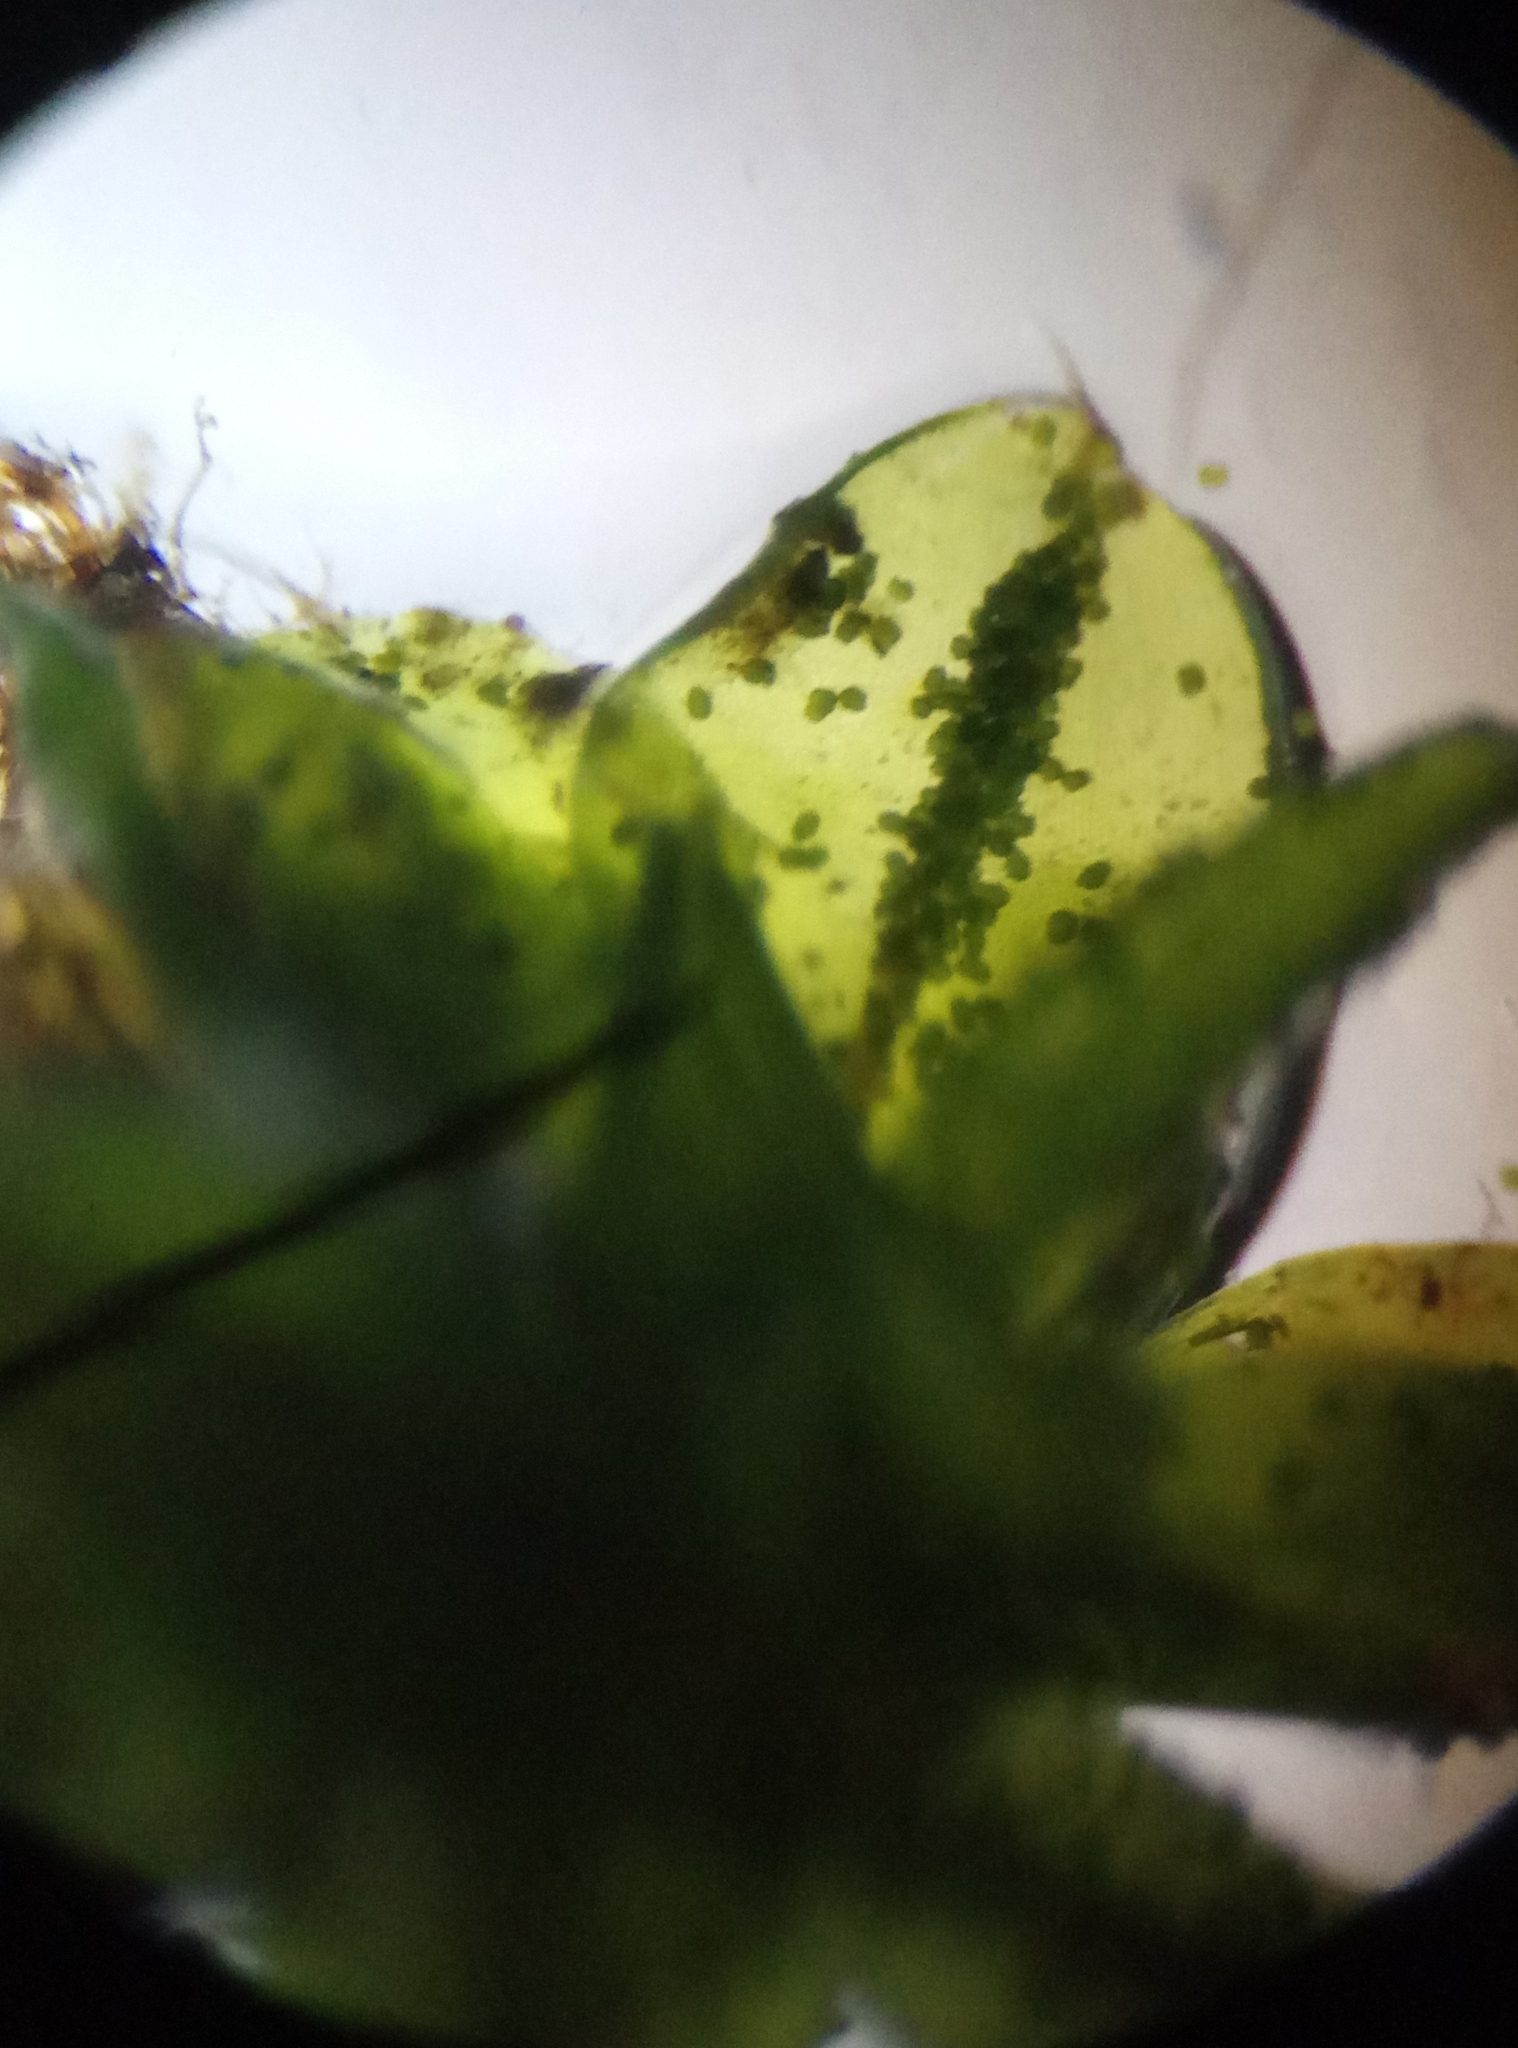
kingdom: Plantae
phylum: Bryophyta
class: Bryopsida
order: Pottiales
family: Pottiaceae
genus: Syntrichia
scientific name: Syntrichia papillosa
